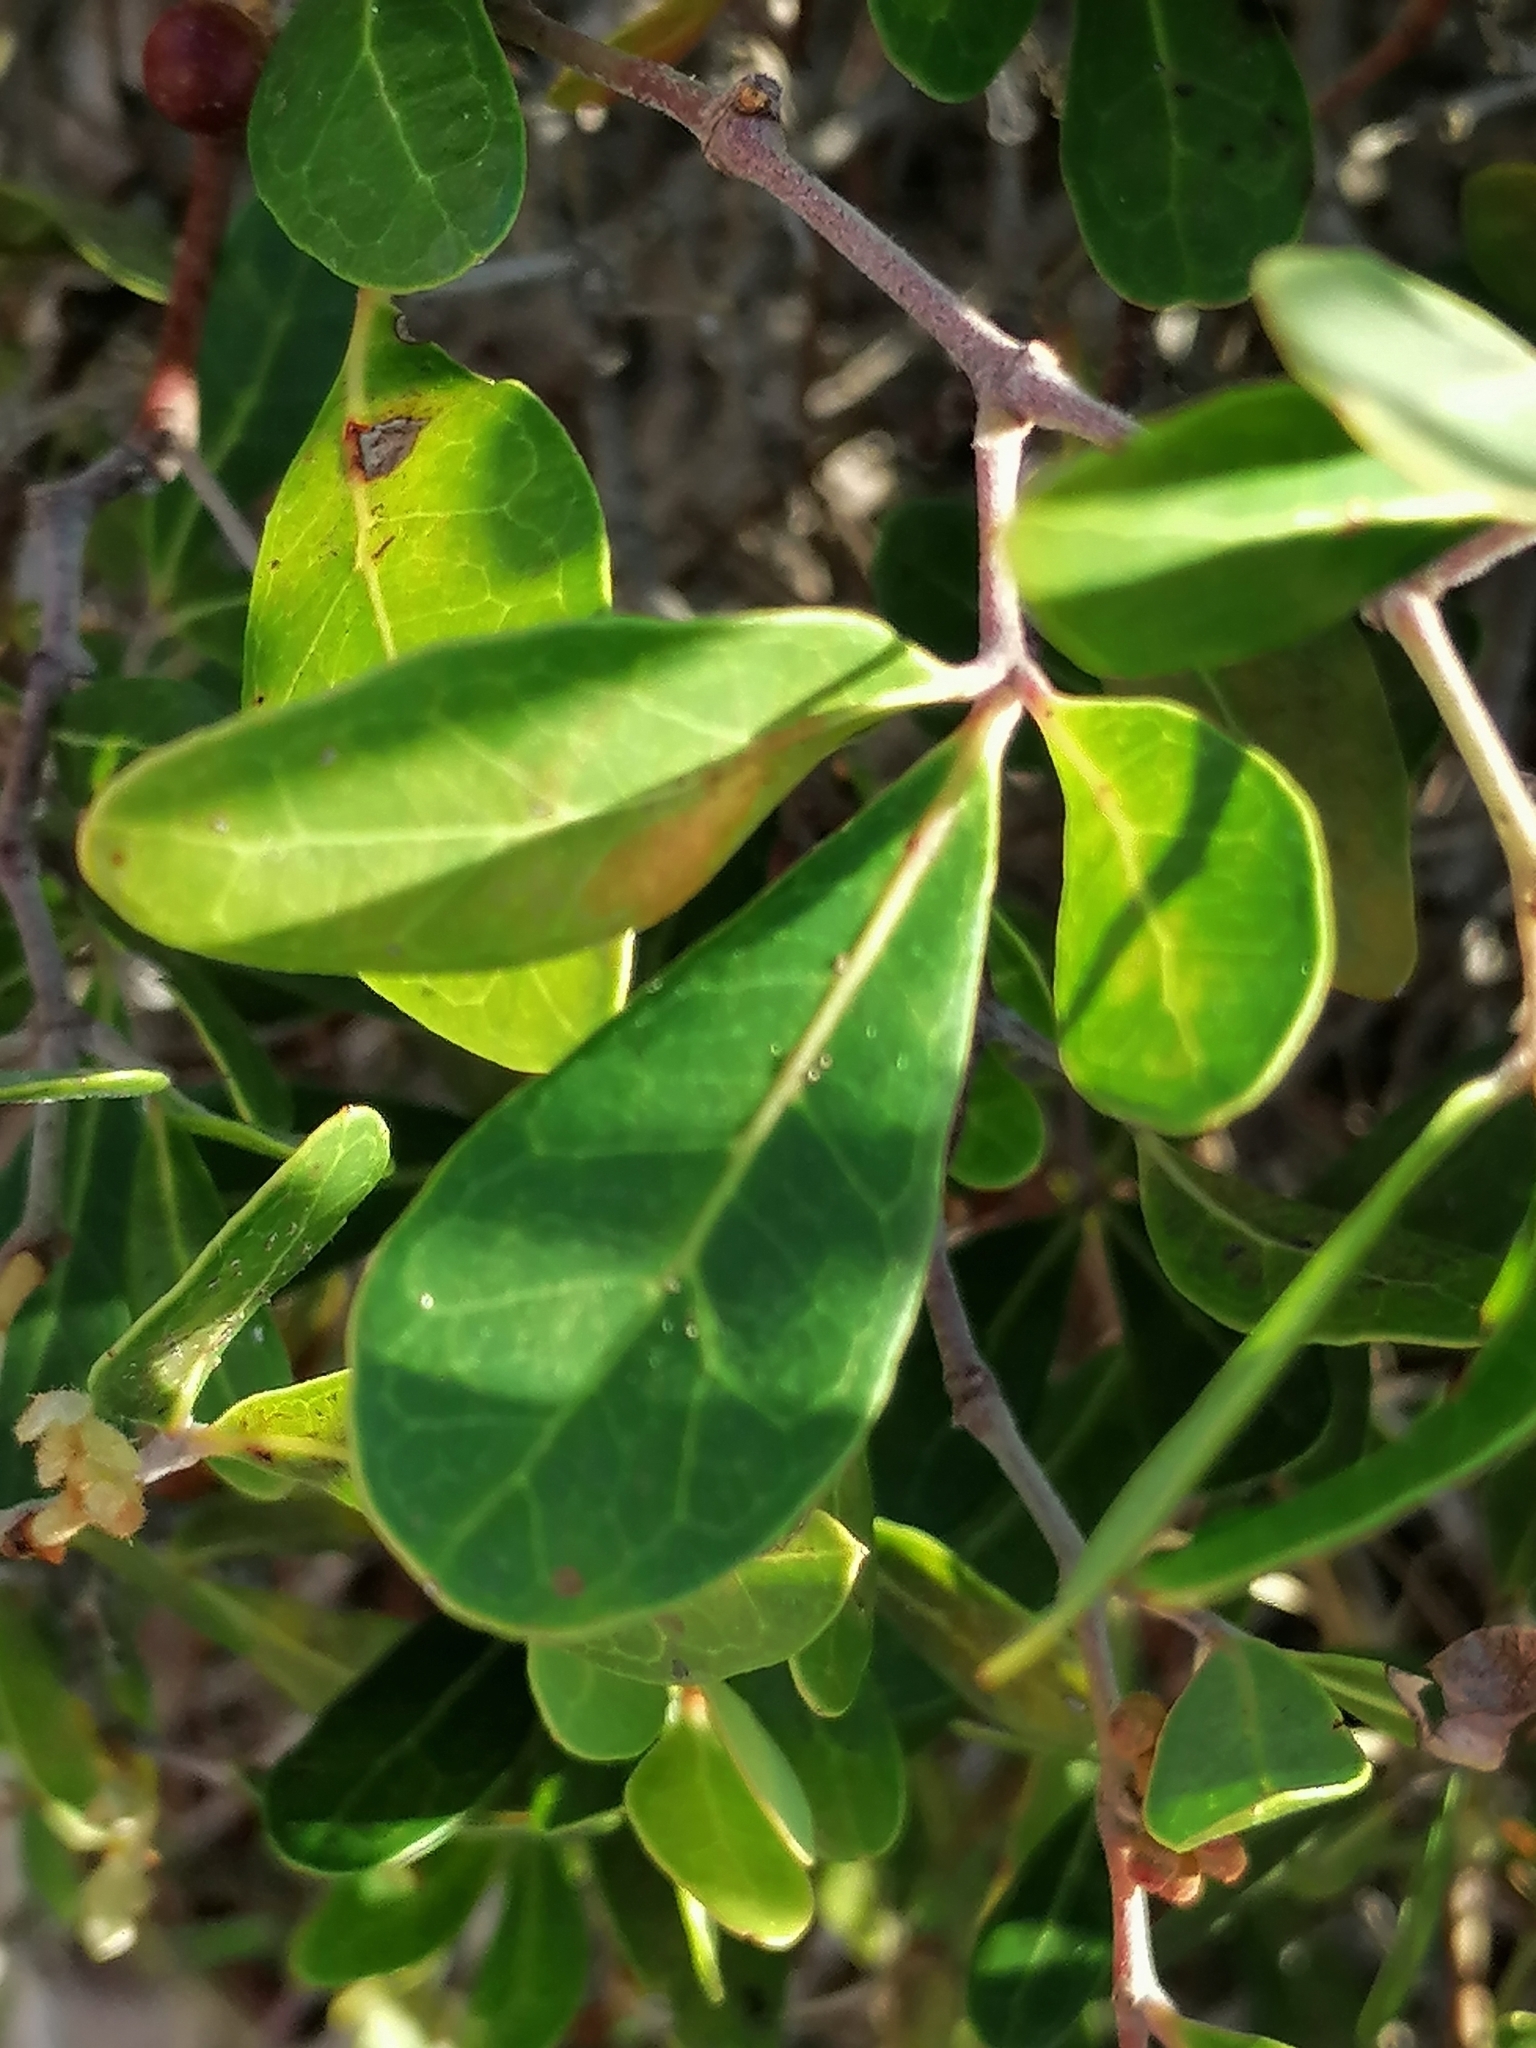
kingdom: Plantae
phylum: Tracheophyta
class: Magnoliopsida
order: Vitales
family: Vitaceae
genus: Rhoicissus
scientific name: Rhoicissus digitata
